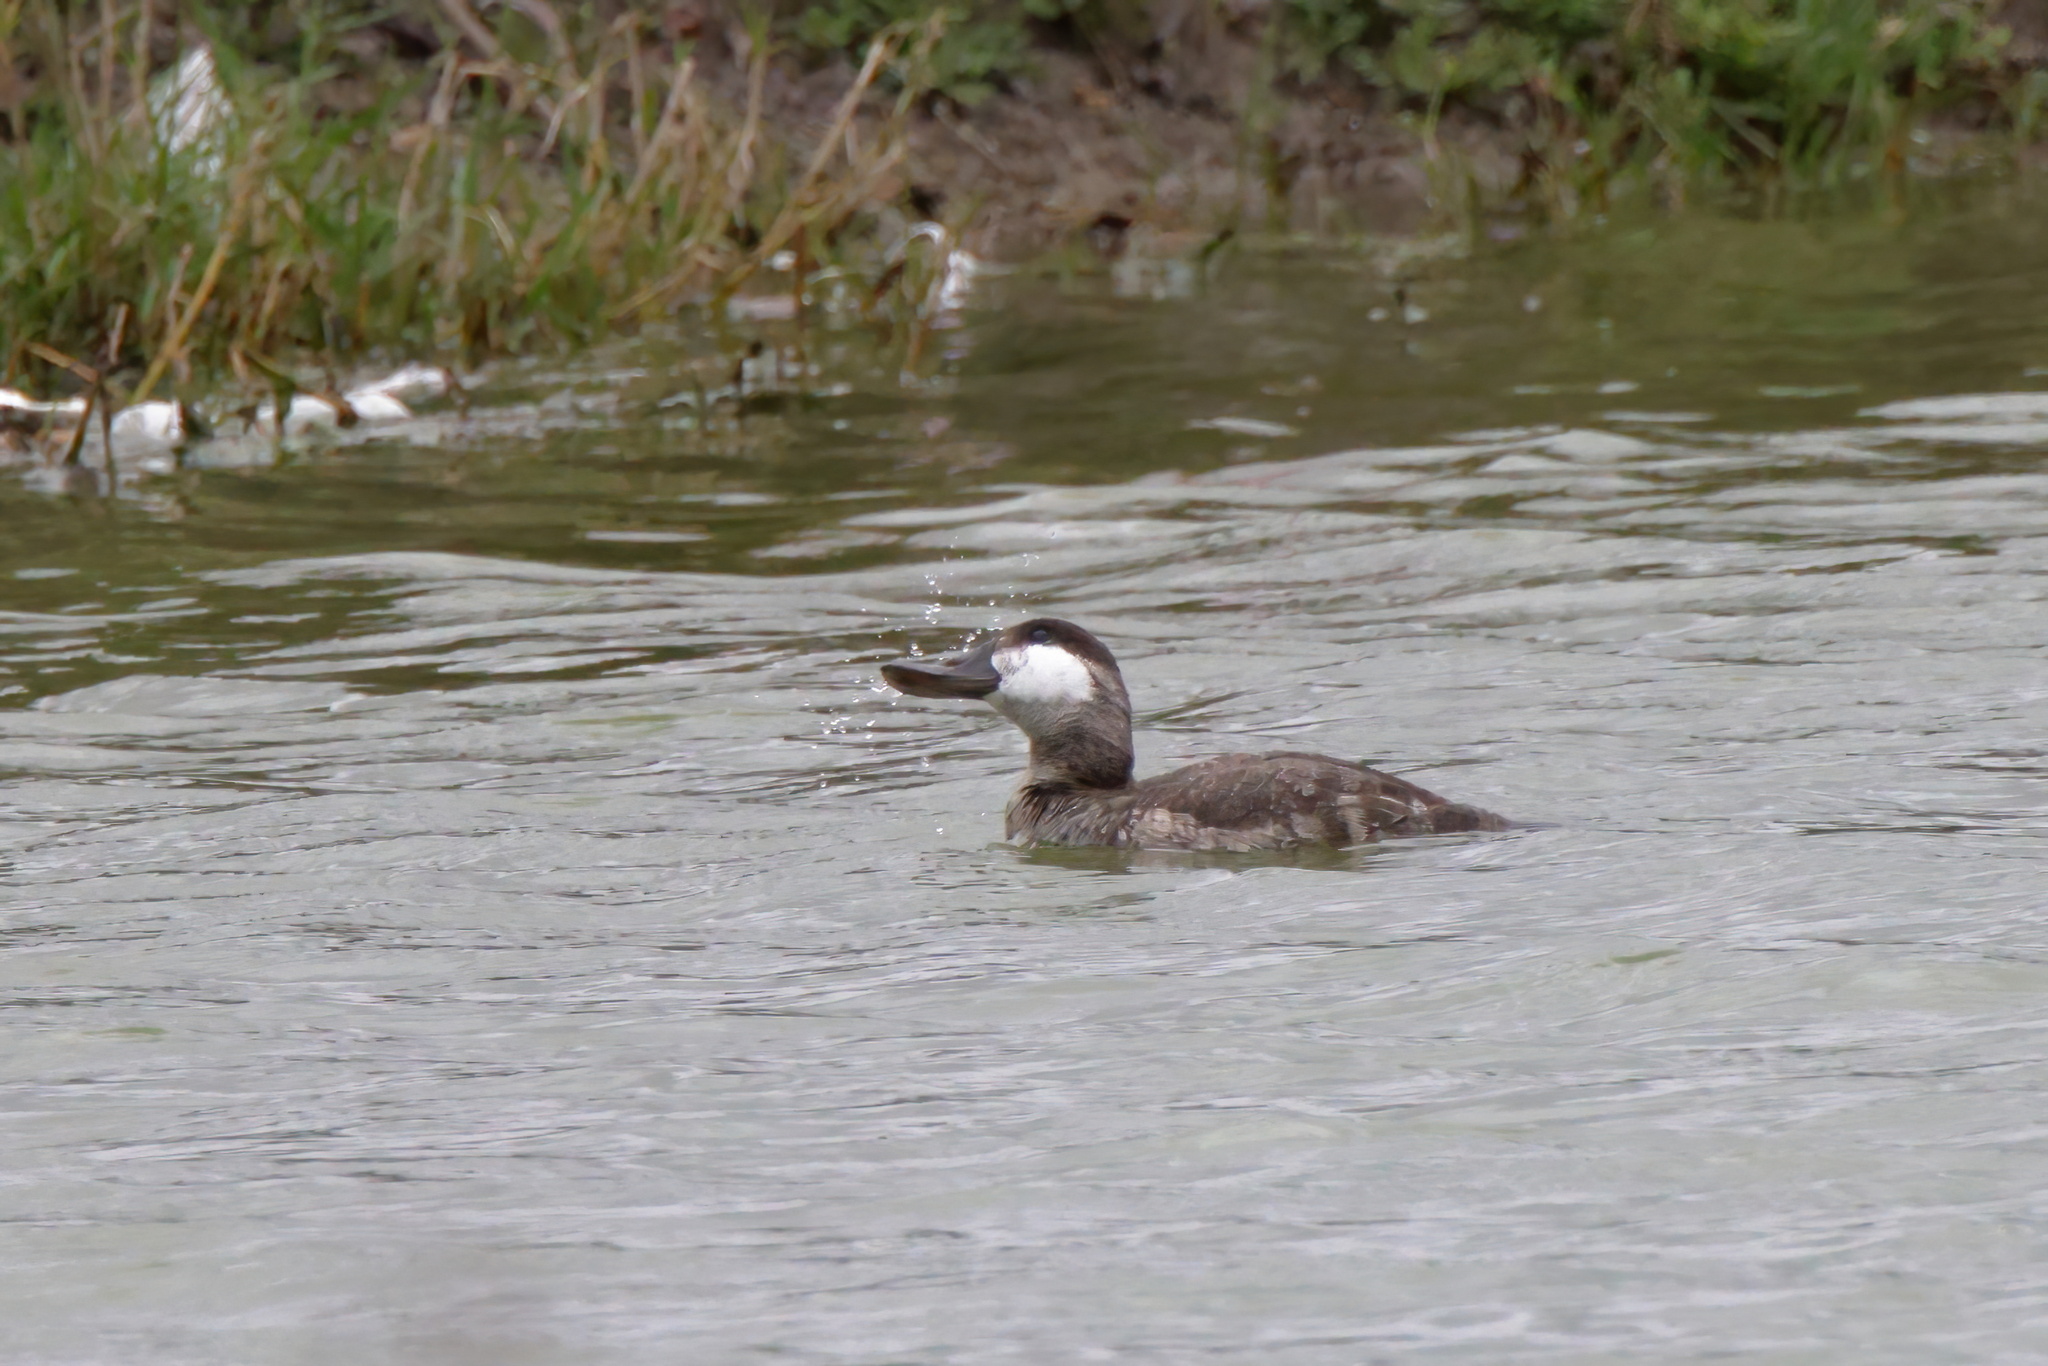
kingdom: Animalia
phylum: Chordata
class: Aves
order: Anseriformes
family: Anatidae
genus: Oxyura
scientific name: Oxyura jamaicensis
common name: Ruddy duck
